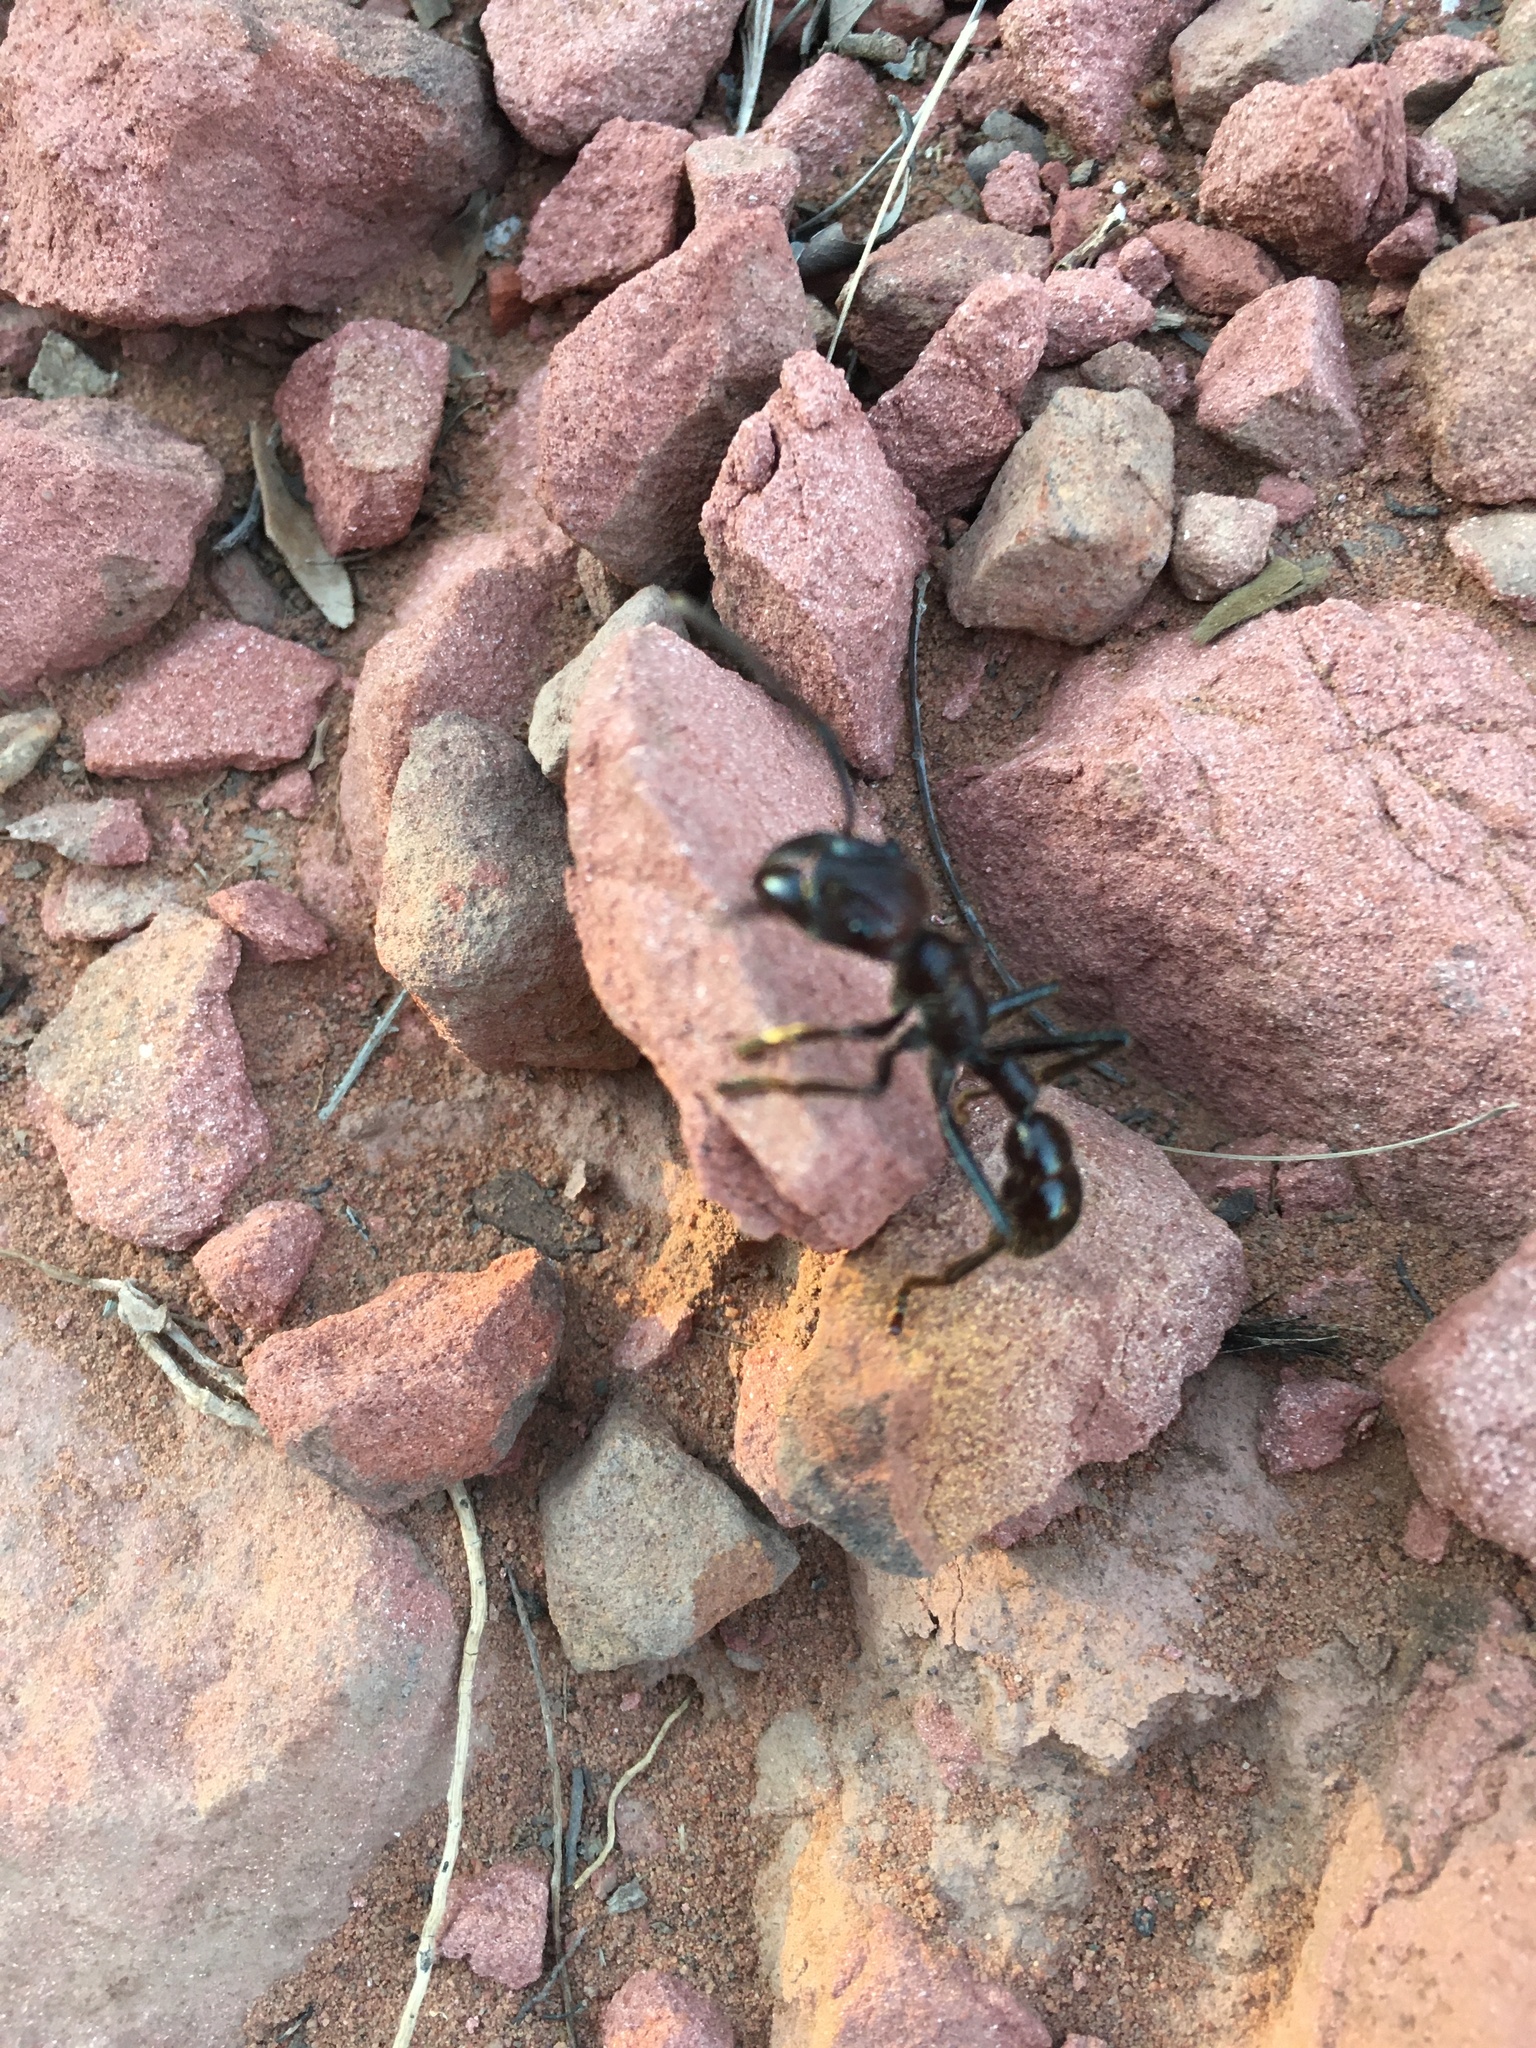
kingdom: Animalia
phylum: Arthropoda
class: Insecta
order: Hymenoptera
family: Formicidae
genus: Paraponera
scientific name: Paraponera clavata
